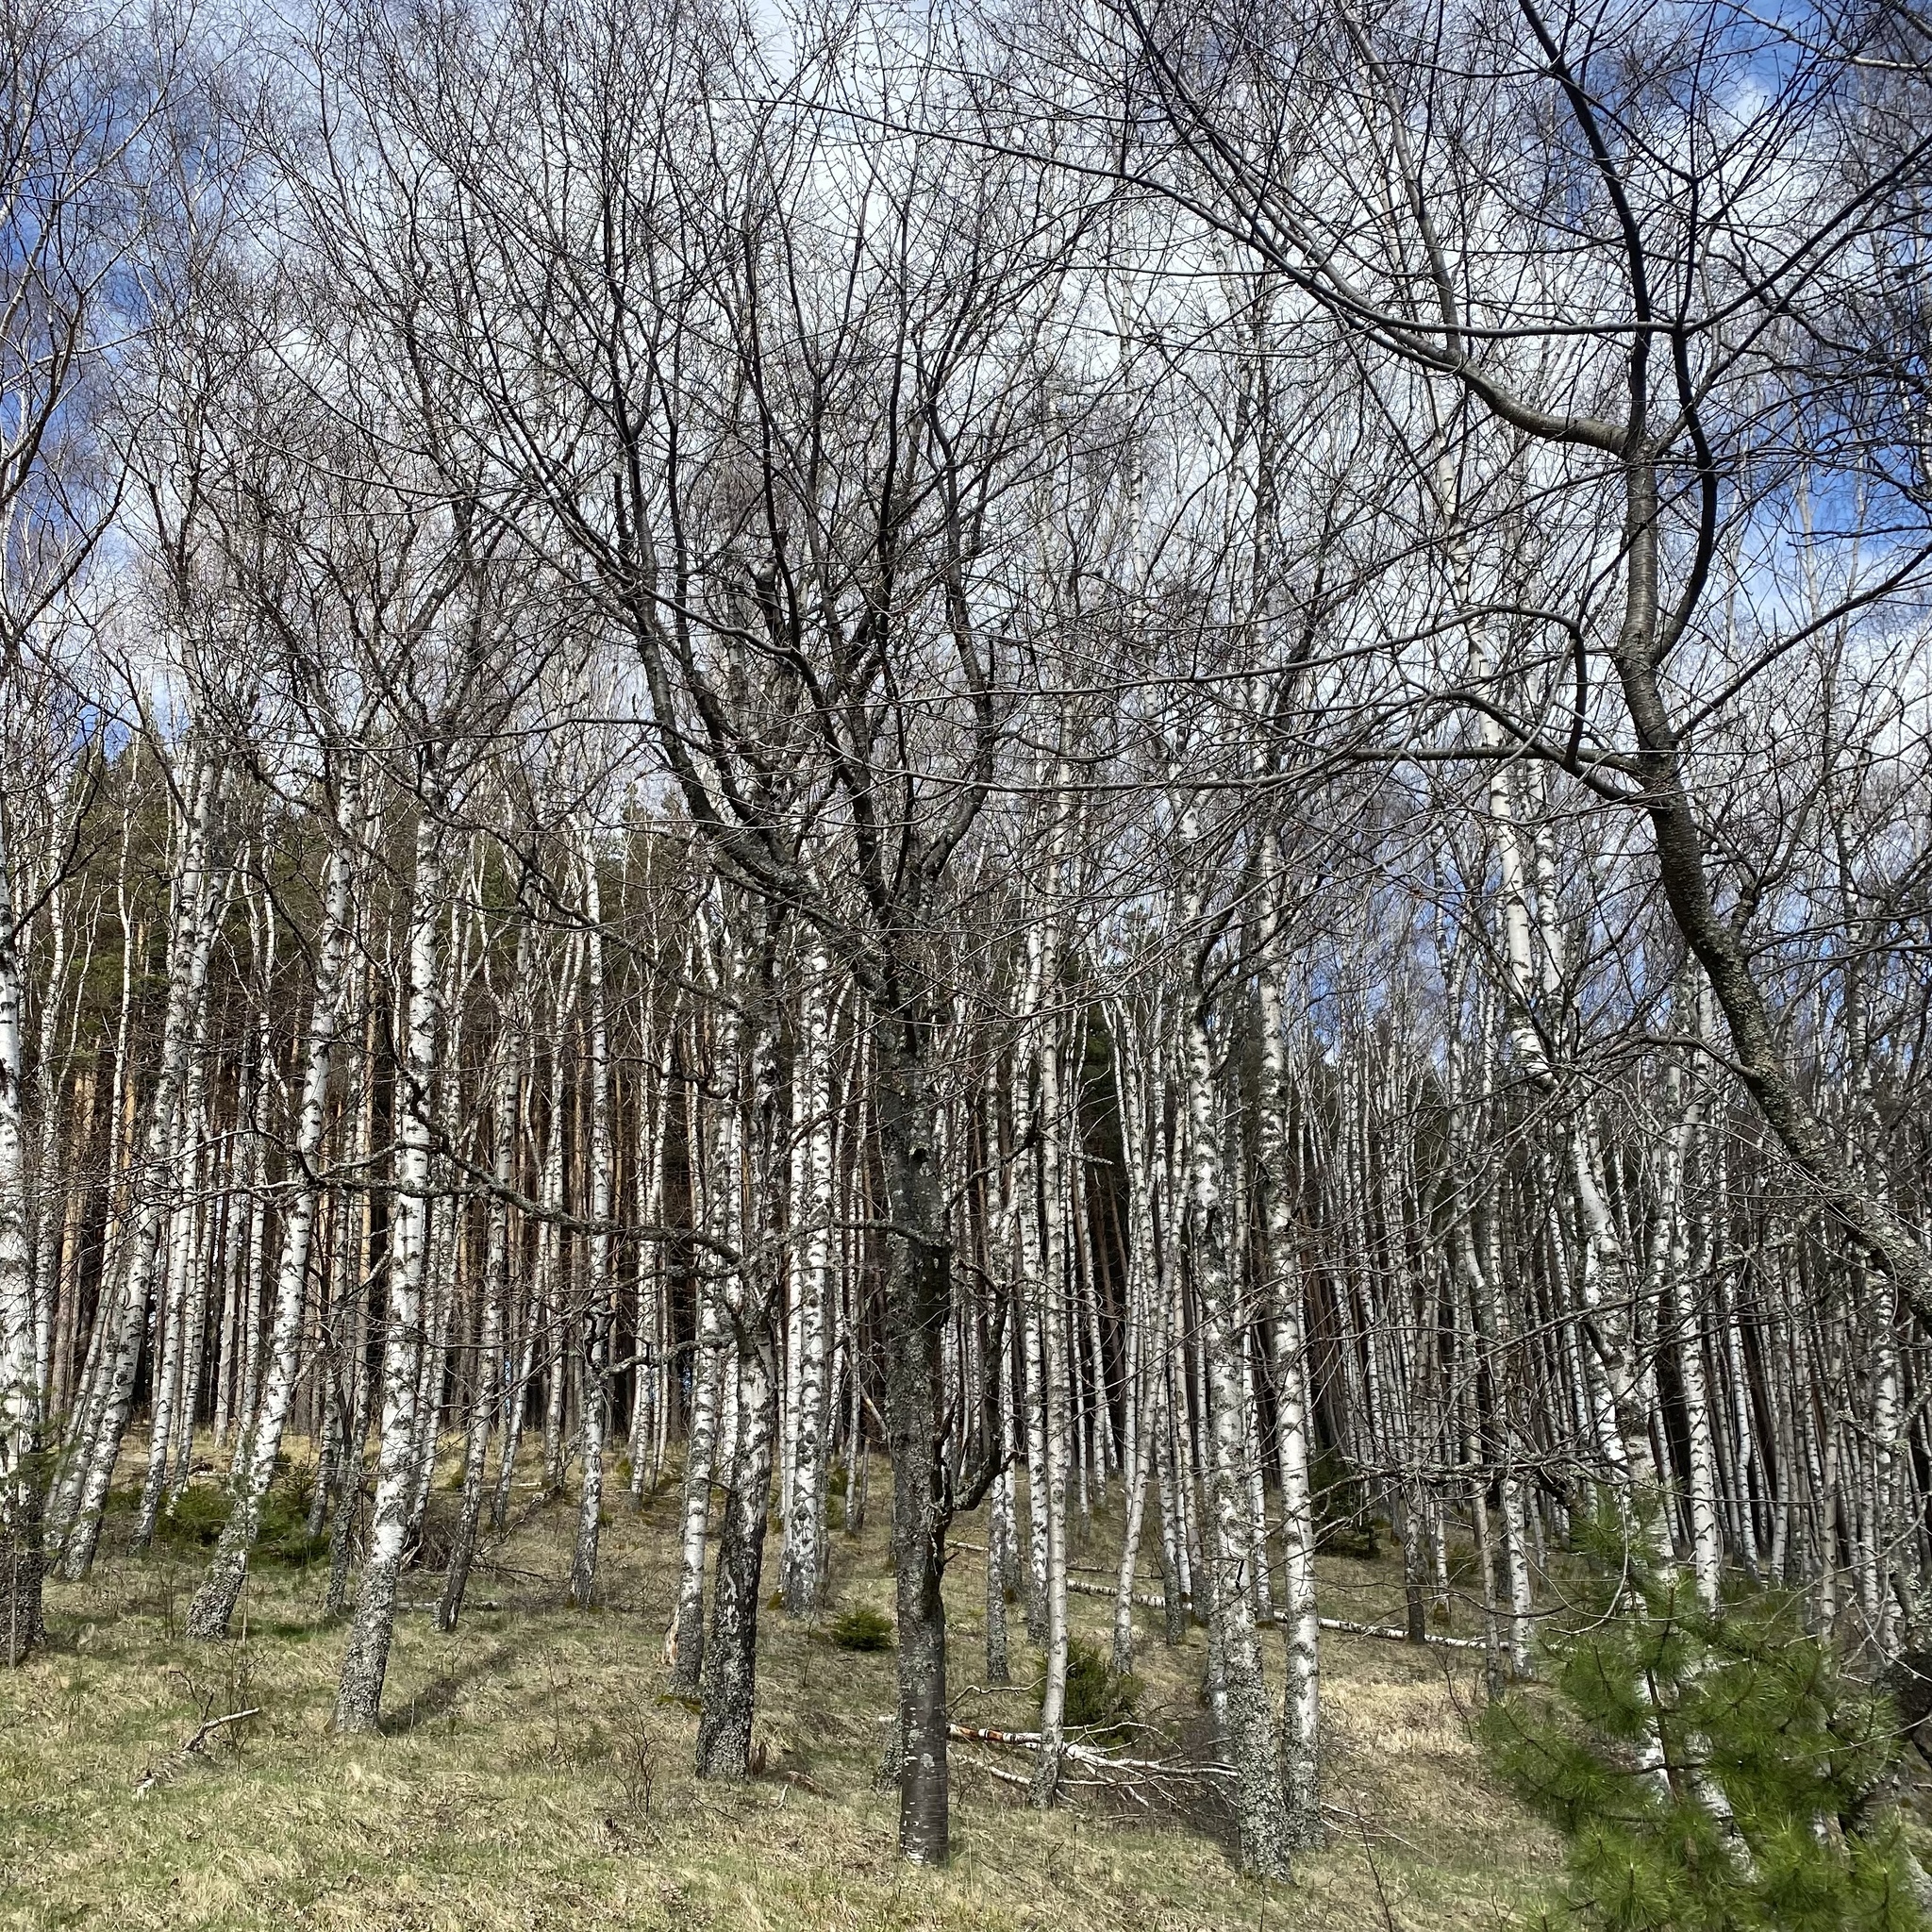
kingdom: Plantae
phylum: Tracheophyta
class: Magnoliopsida
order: Fagales
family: Betulaceae
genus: Betula
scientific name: Betula pendula
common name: Silver birch
